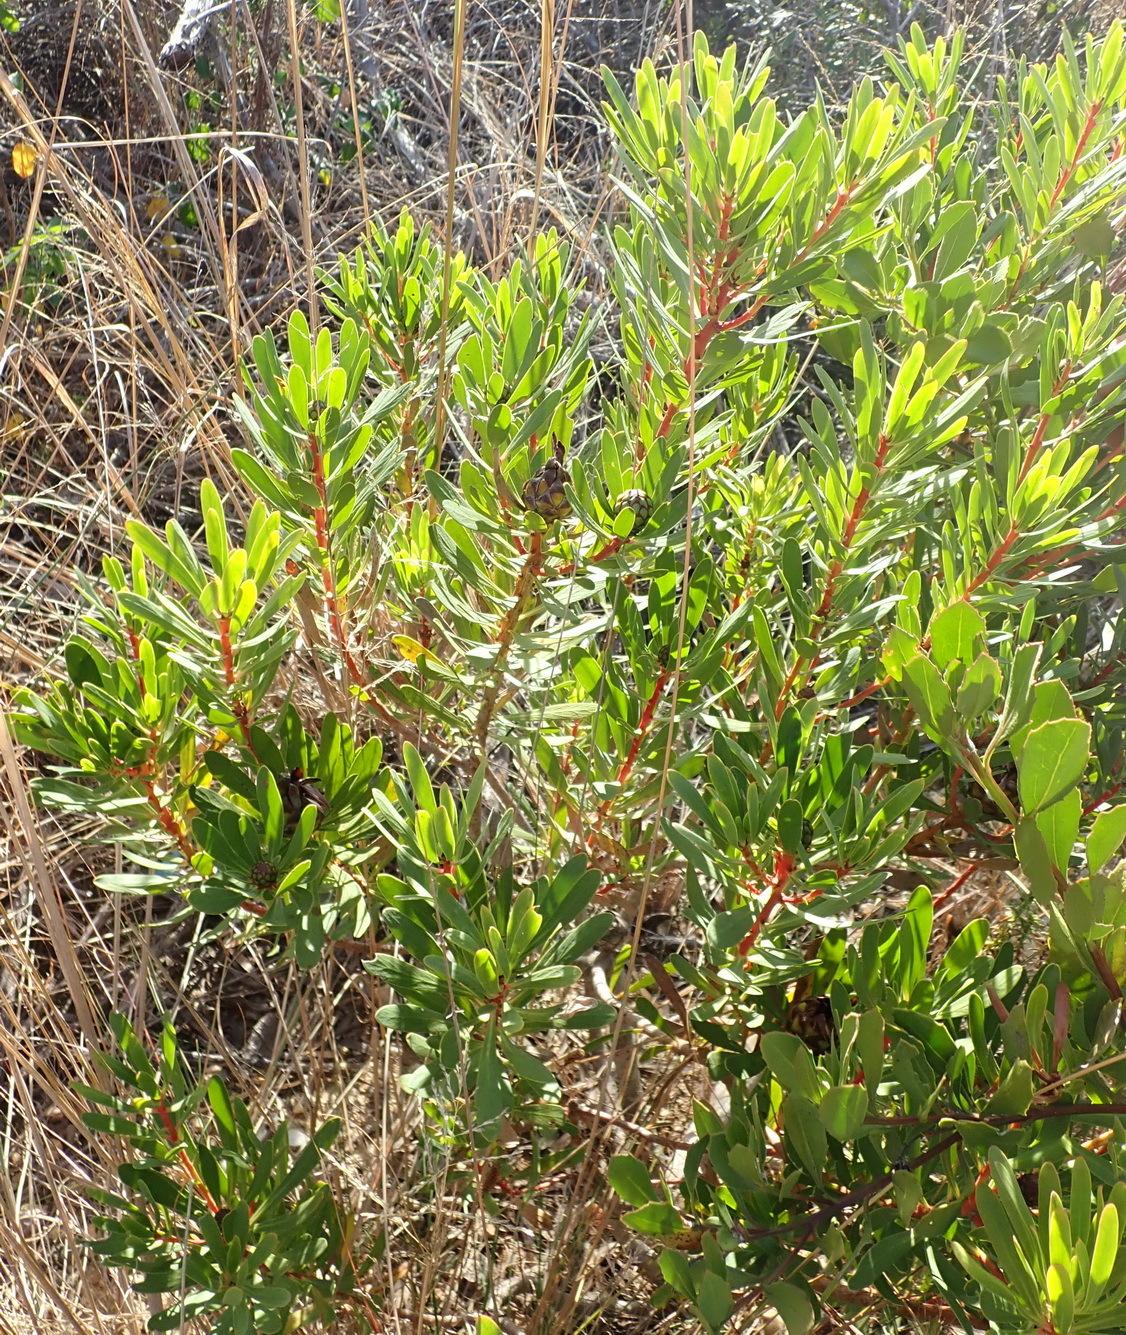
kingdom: Plantae
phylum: Tracheophyta
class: Magnoliopsida
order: Proteales
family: Proteaceae
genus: Protea
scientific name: Protea lanceolata
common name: Lance-leaved protea
